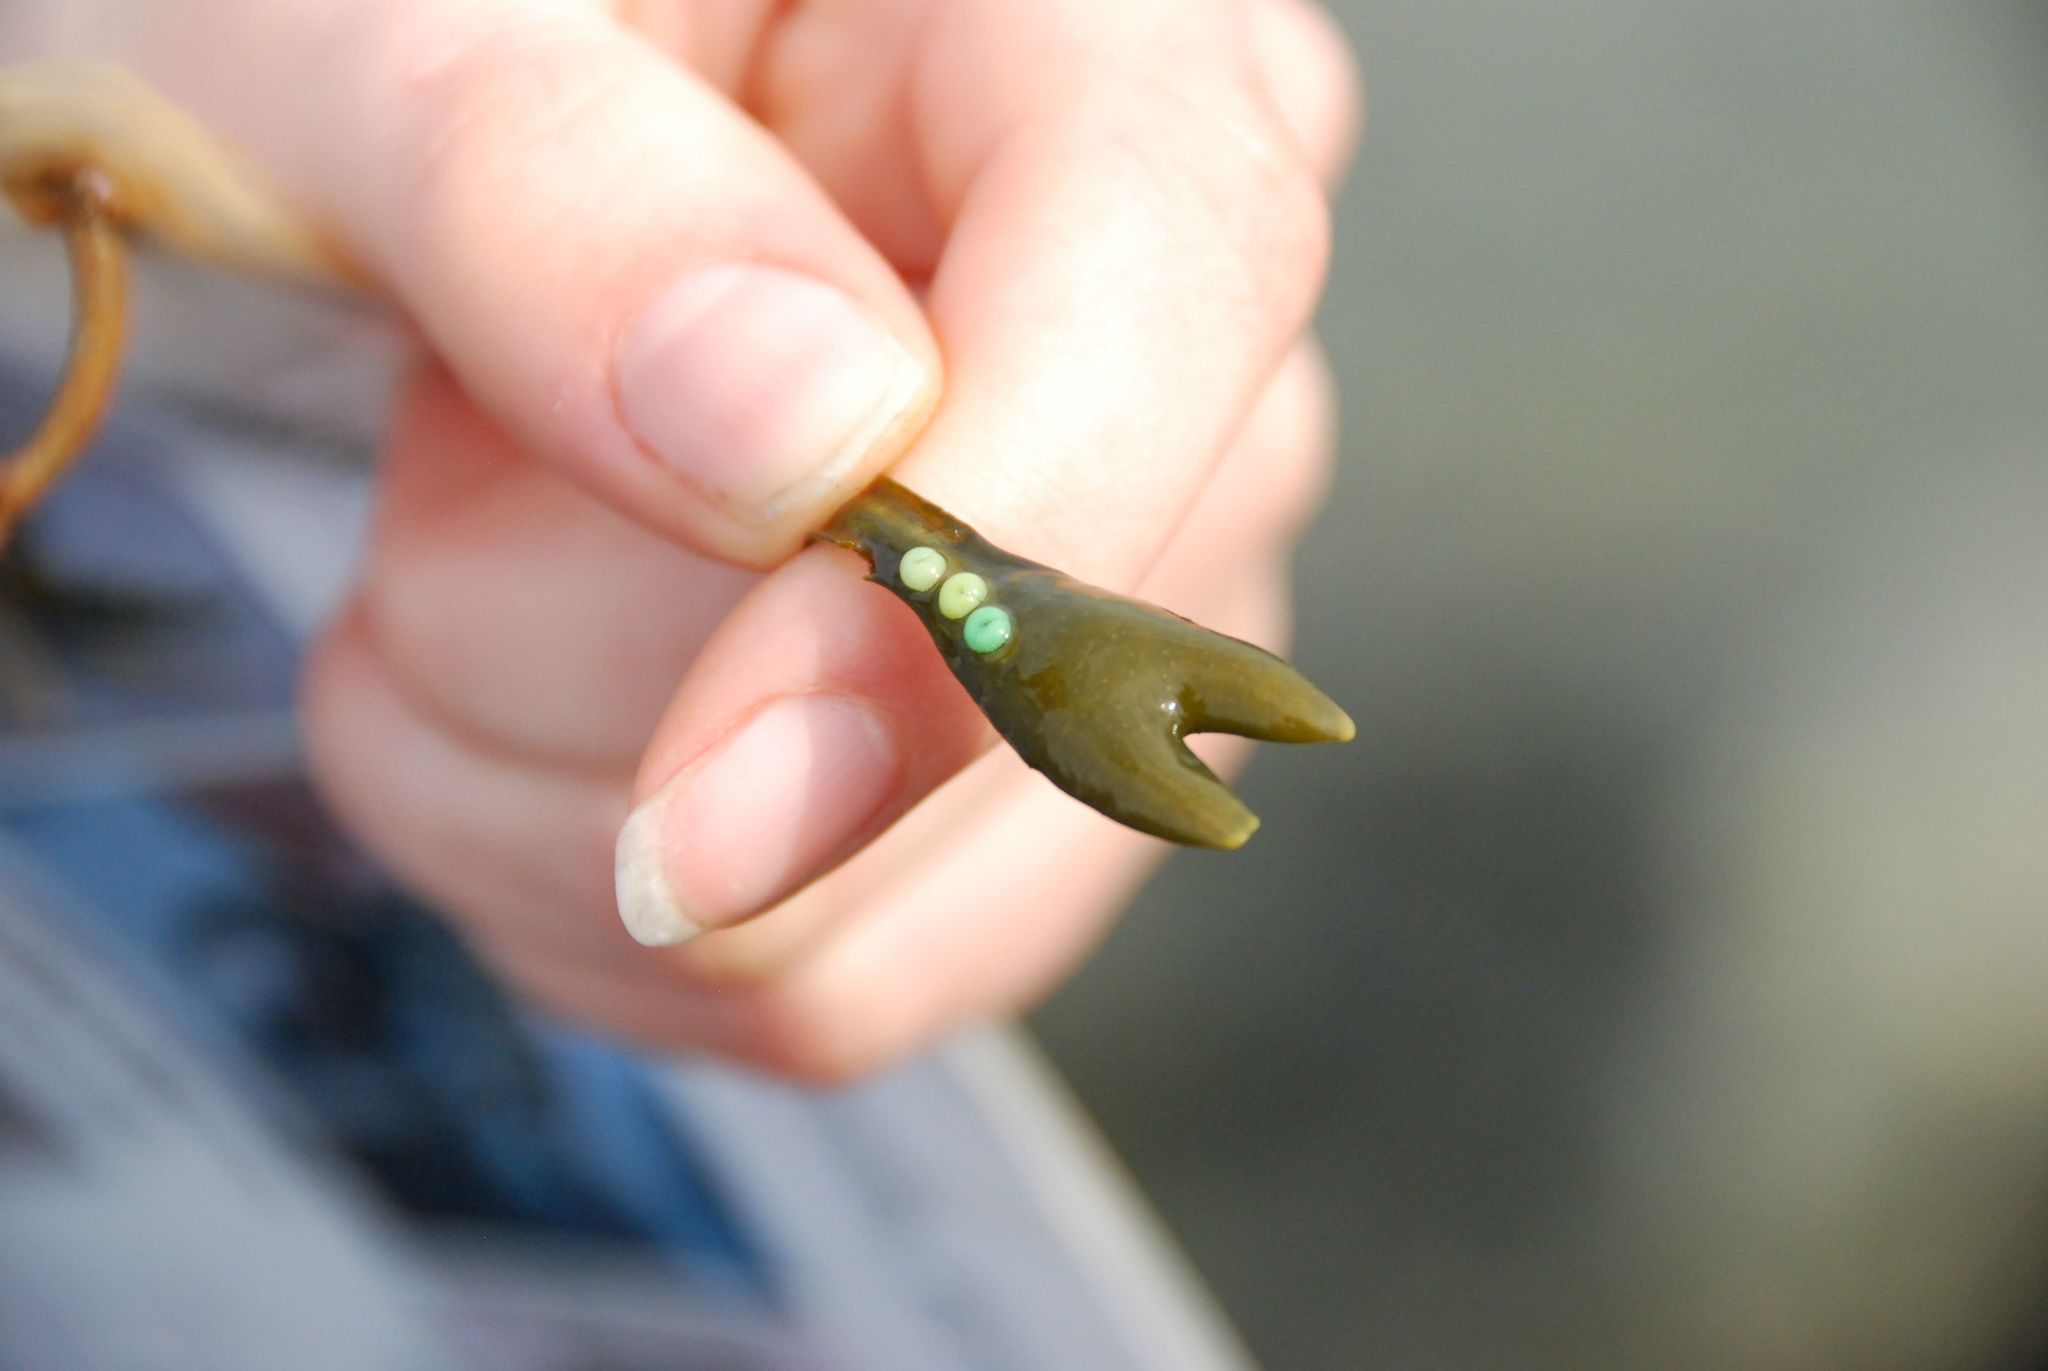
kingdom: Animalia
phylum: Mollusca
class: Gastropoda
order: Littorinimorpha
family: Littorinidae
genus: Lacuna
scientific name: Lacuna vincta
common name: Banded chink shell
